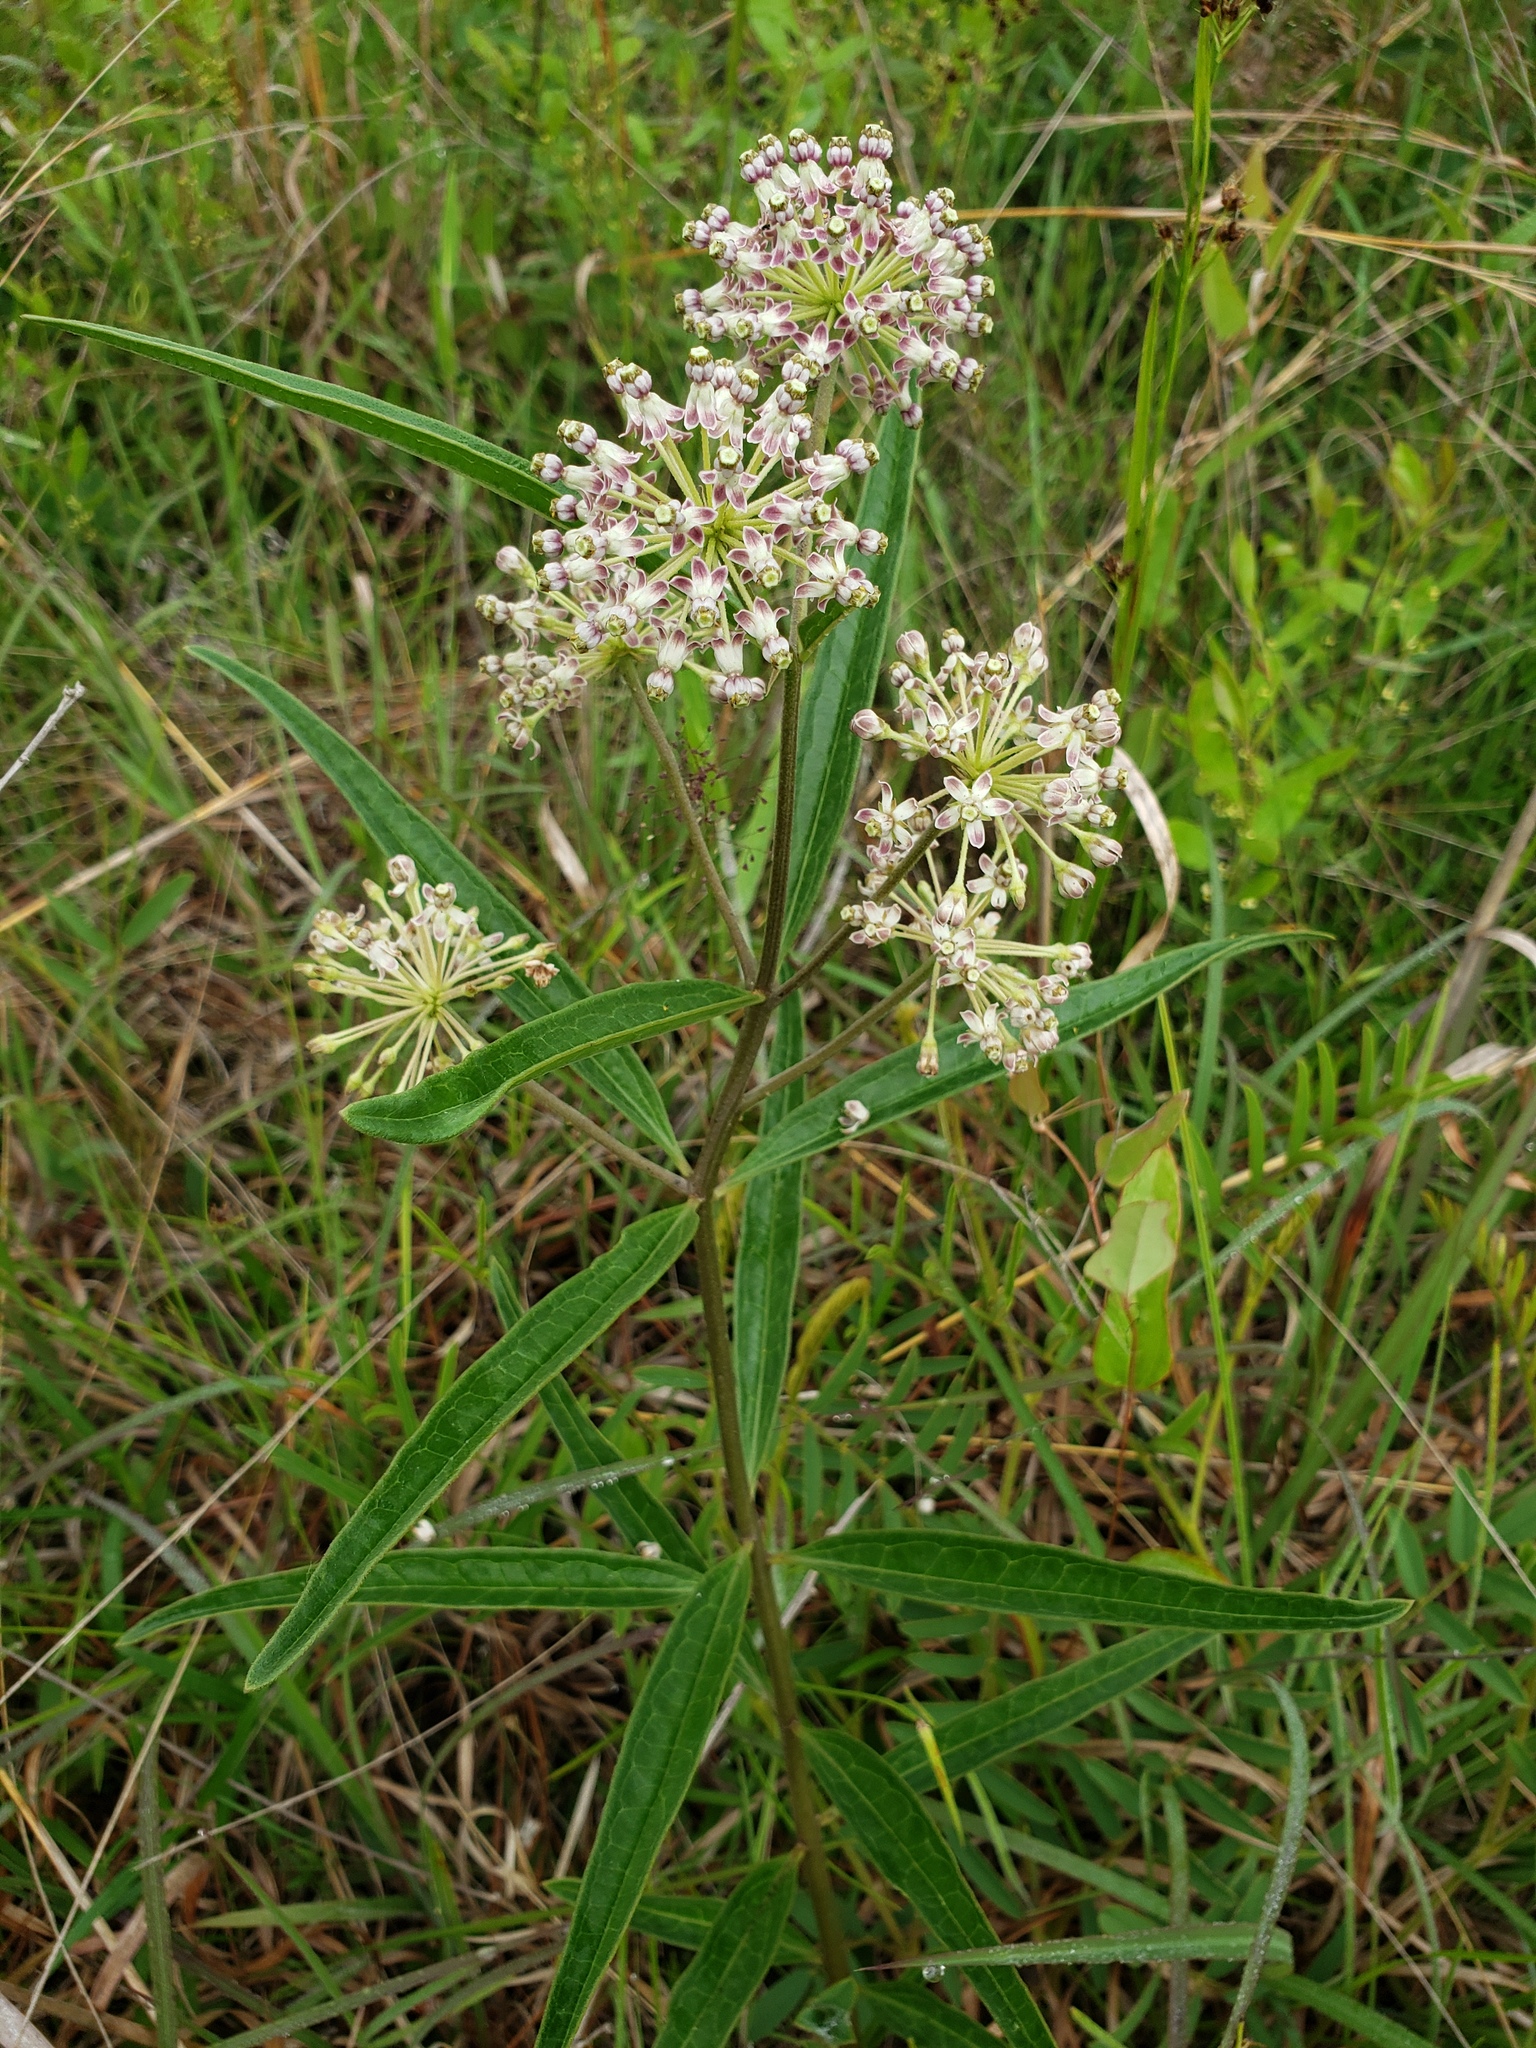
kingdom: Plantae
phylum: Tracheophyta
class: Magnoliopsida
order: Gentianales
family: Apocynaceae
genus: Asclepias
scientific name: Asclepias longifolia
